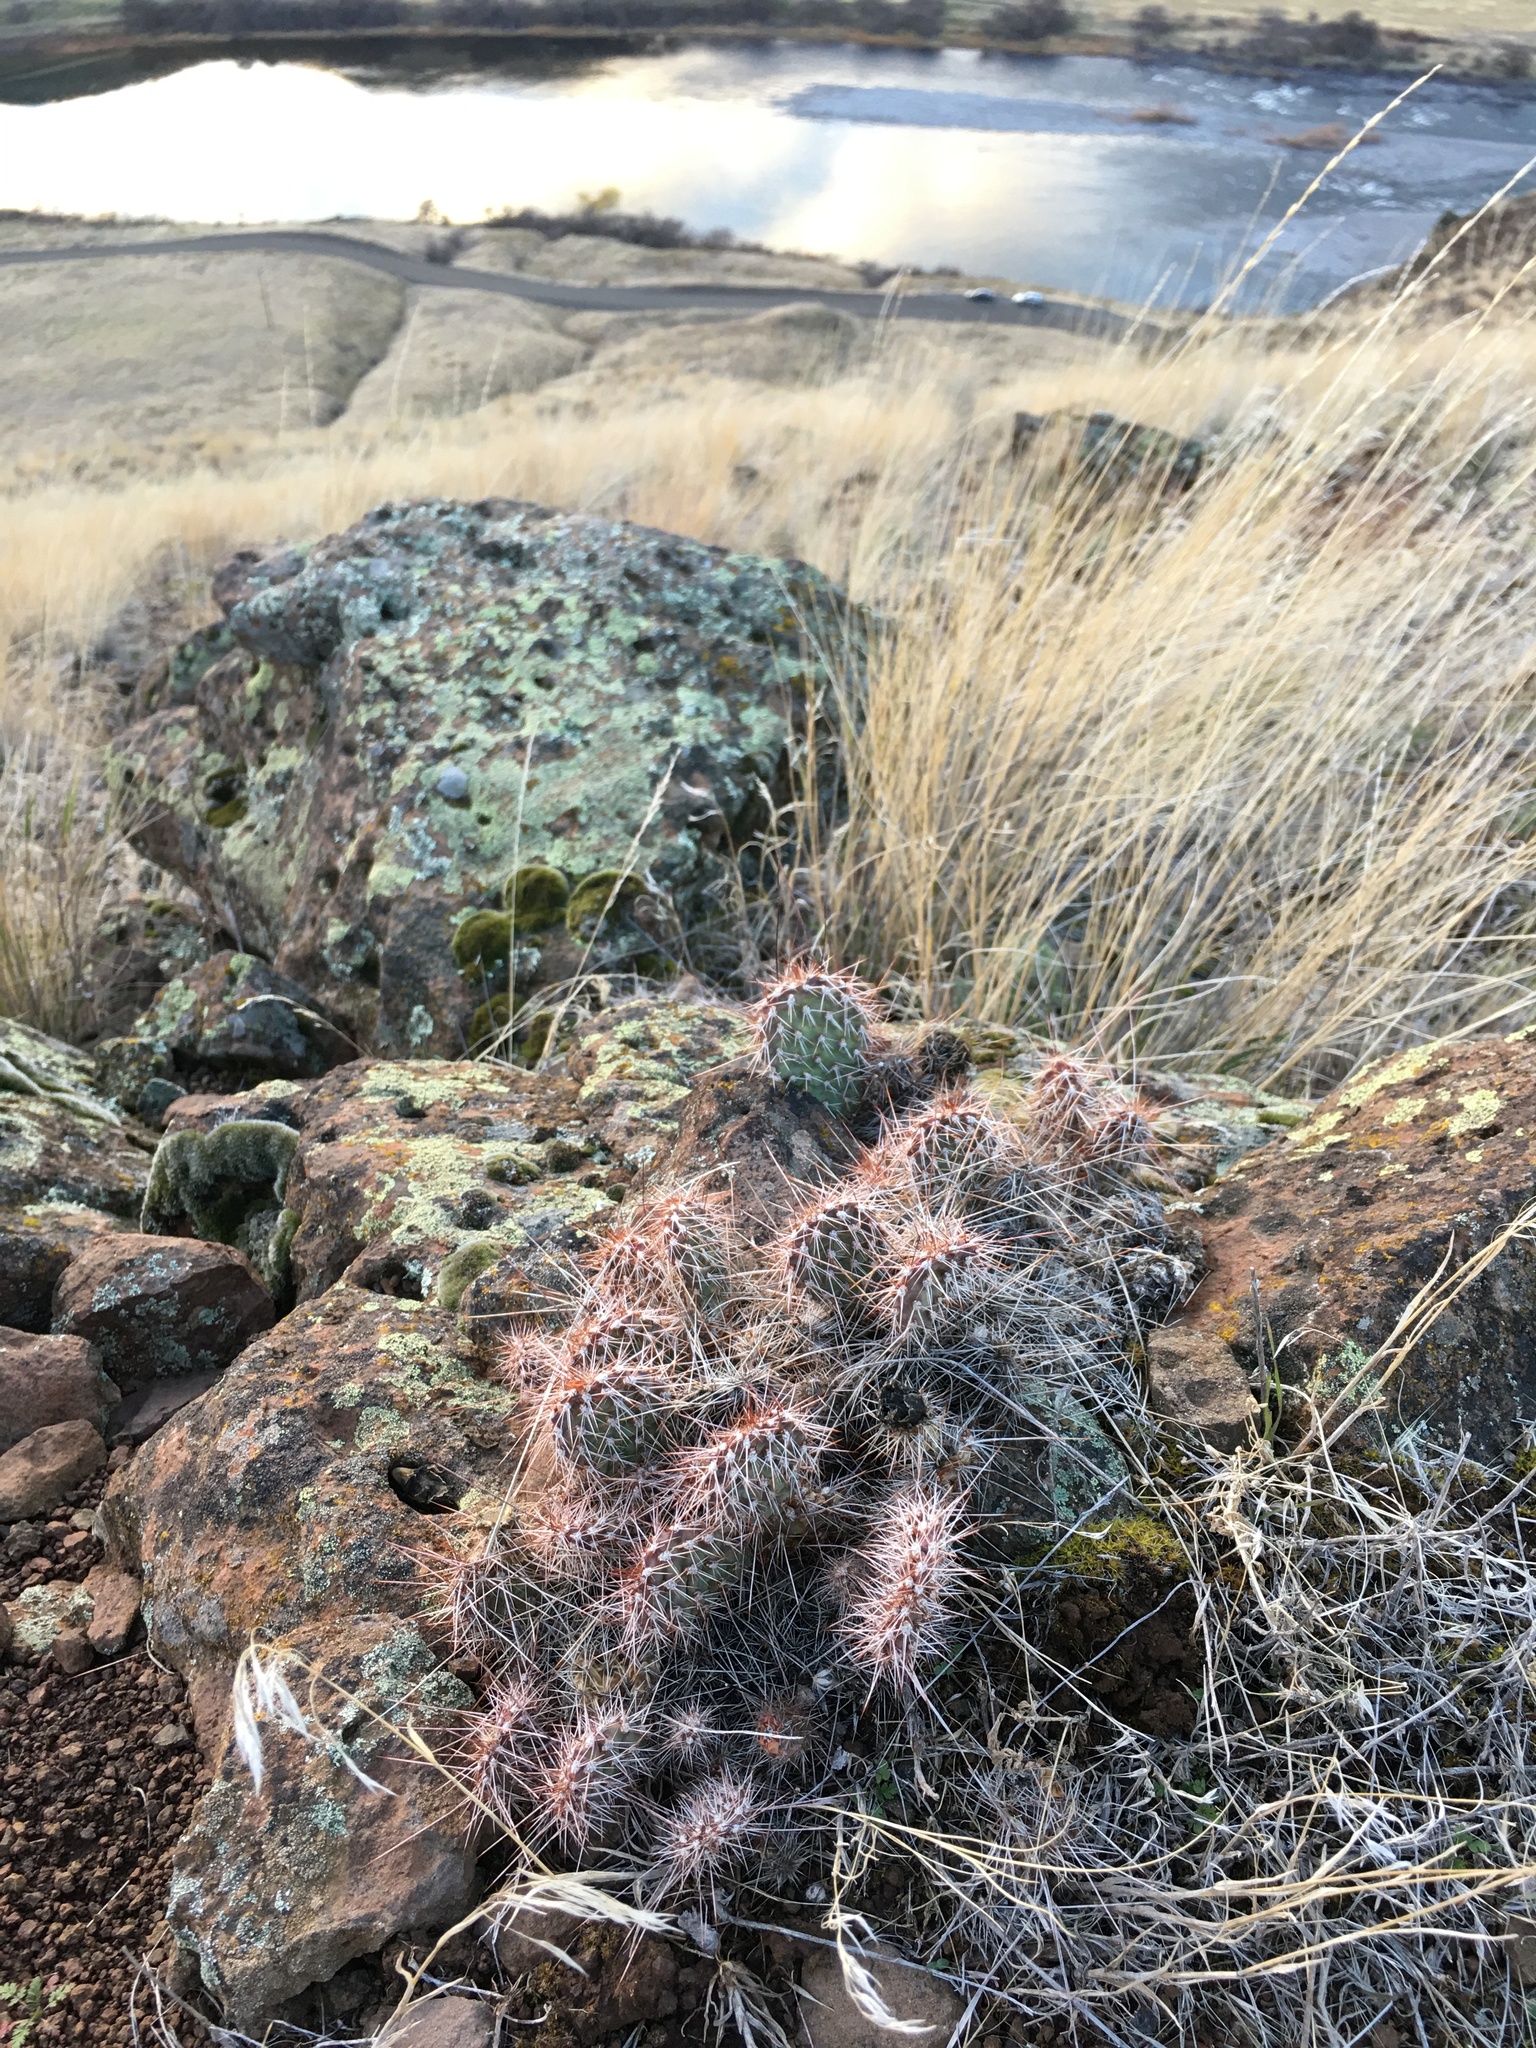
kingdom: Plantae
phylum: Tracheophyta
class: Magnoliopsida
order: Caryophyllales
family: Cactaceae
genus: Opuntia
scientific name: Opuntia polyacantha
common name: Plains prickly-pear
